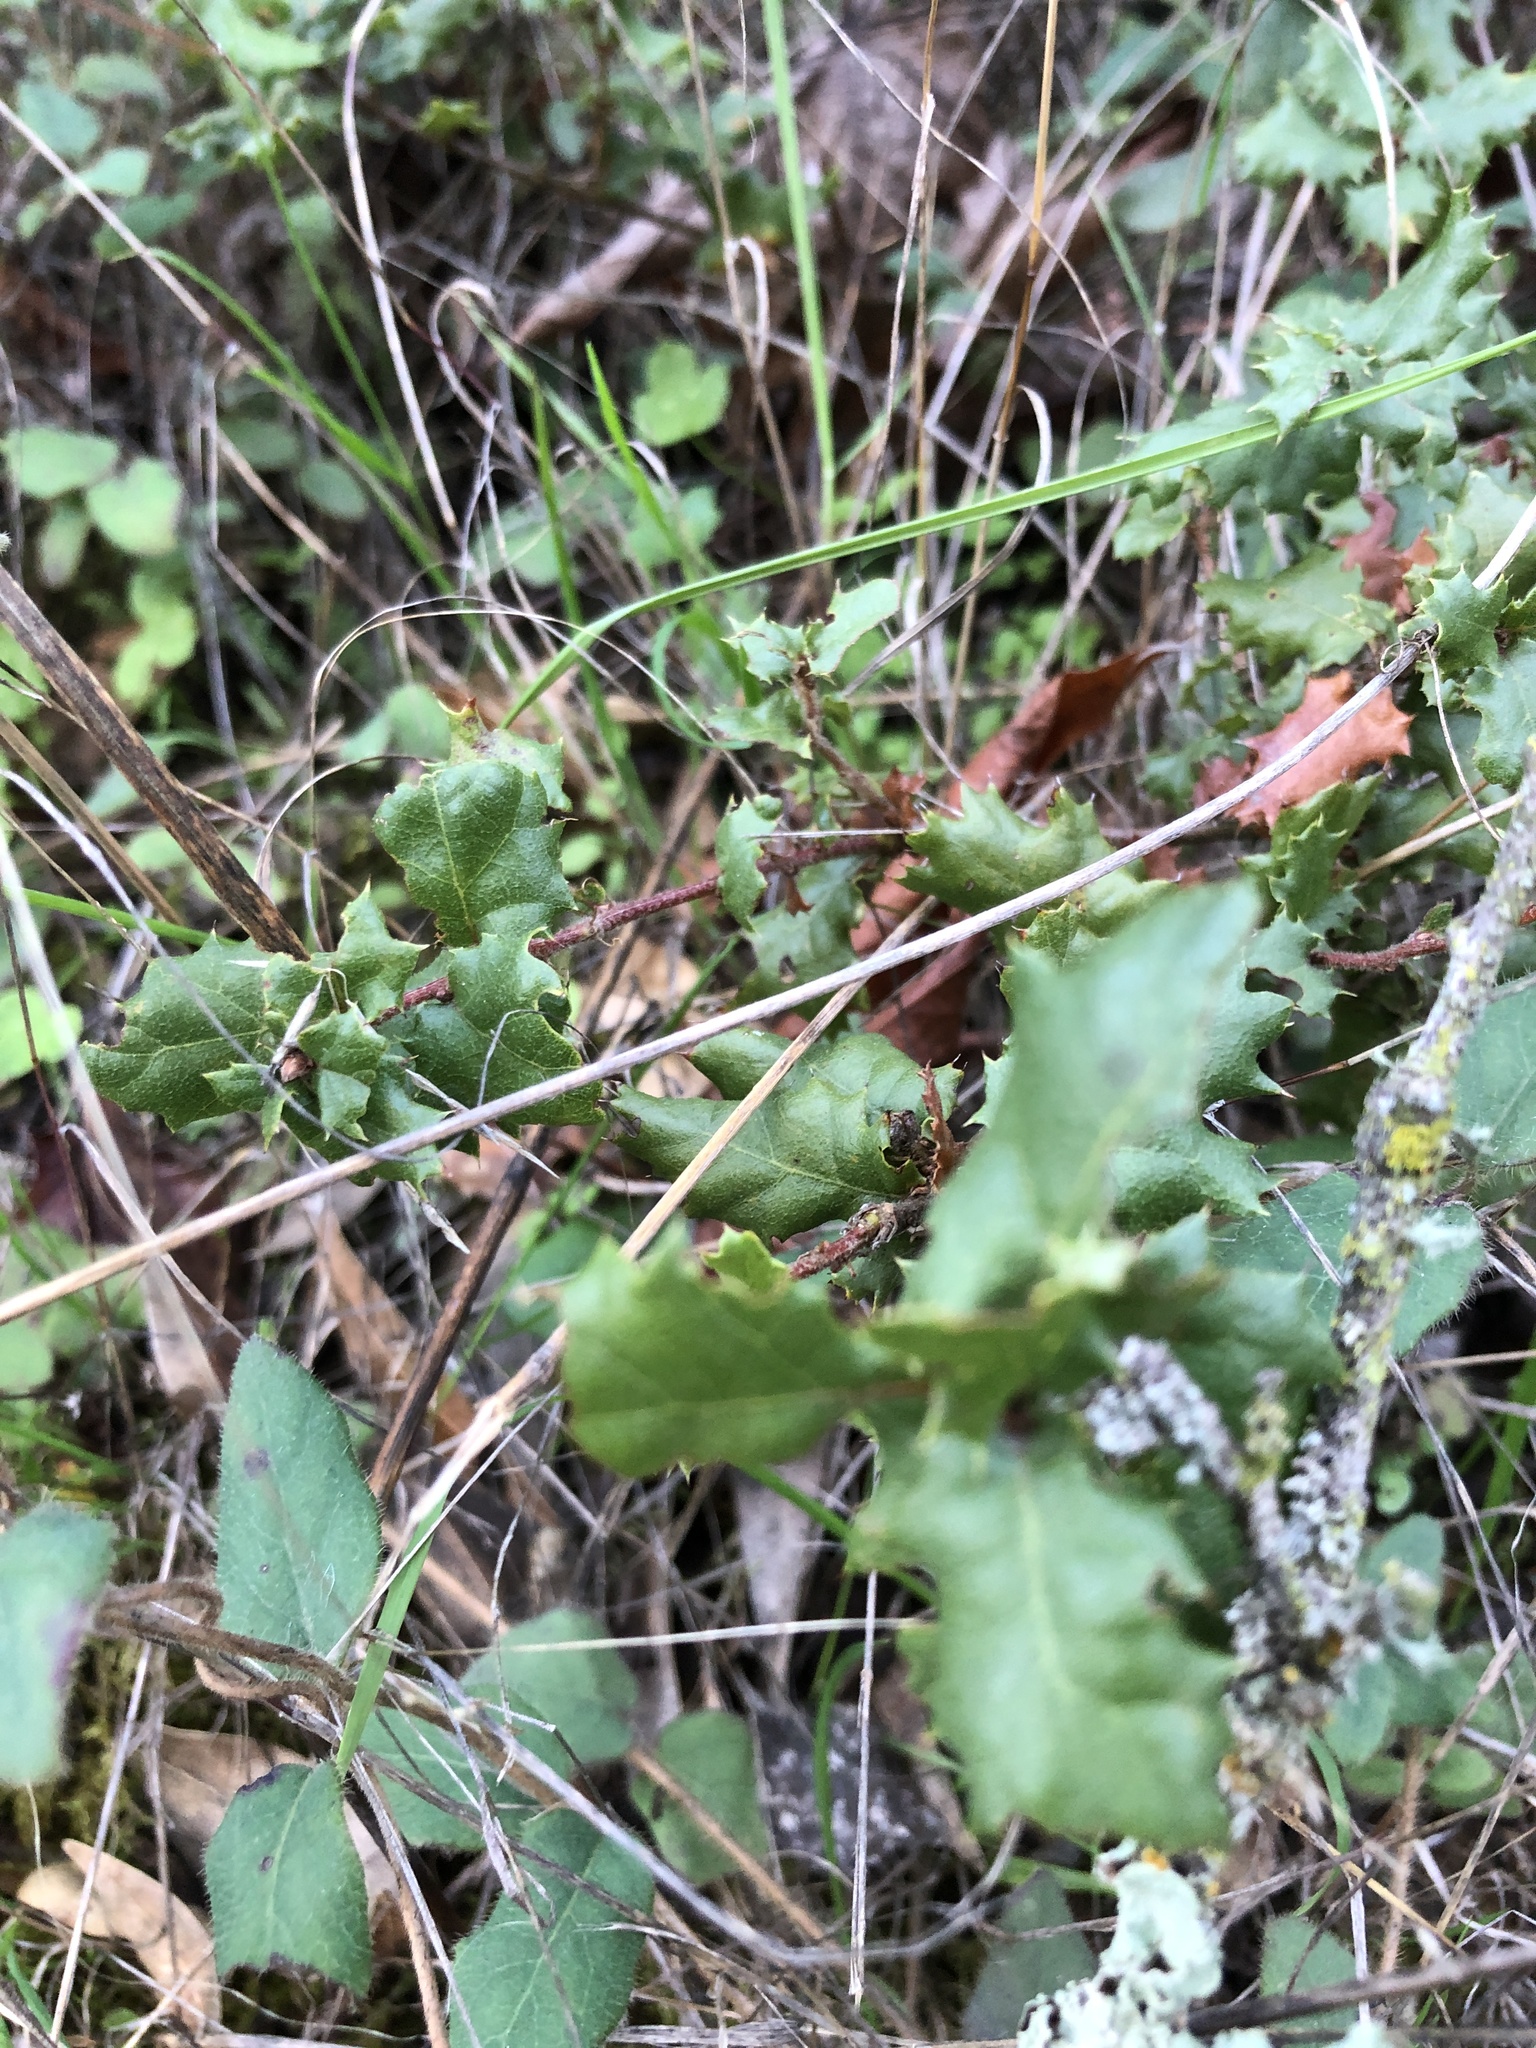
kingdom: Plantae
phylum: Tracheophyta
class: Magnoliopsida
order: Fagales
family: Fagaceae
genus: Quercus
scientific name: Quercus durata
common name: Leather oak
